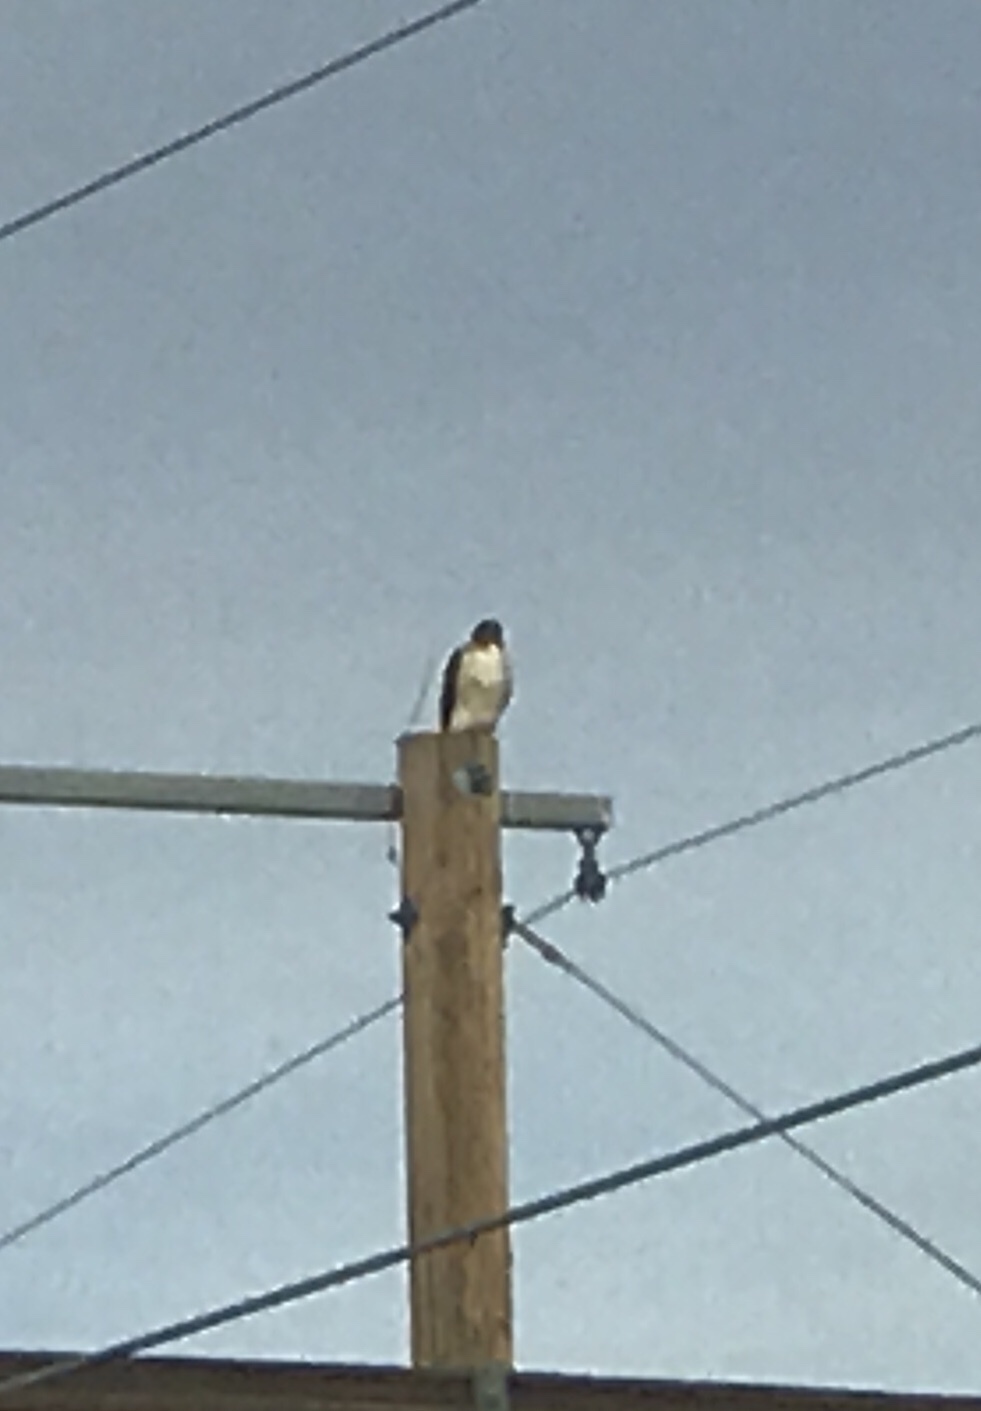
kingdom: Animalia
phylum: Chordata
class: Aves
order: Accipitriformes
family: Accipitridae
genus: Buteo
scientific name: Buteo jamaicensis
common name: Red-tailed hawk
